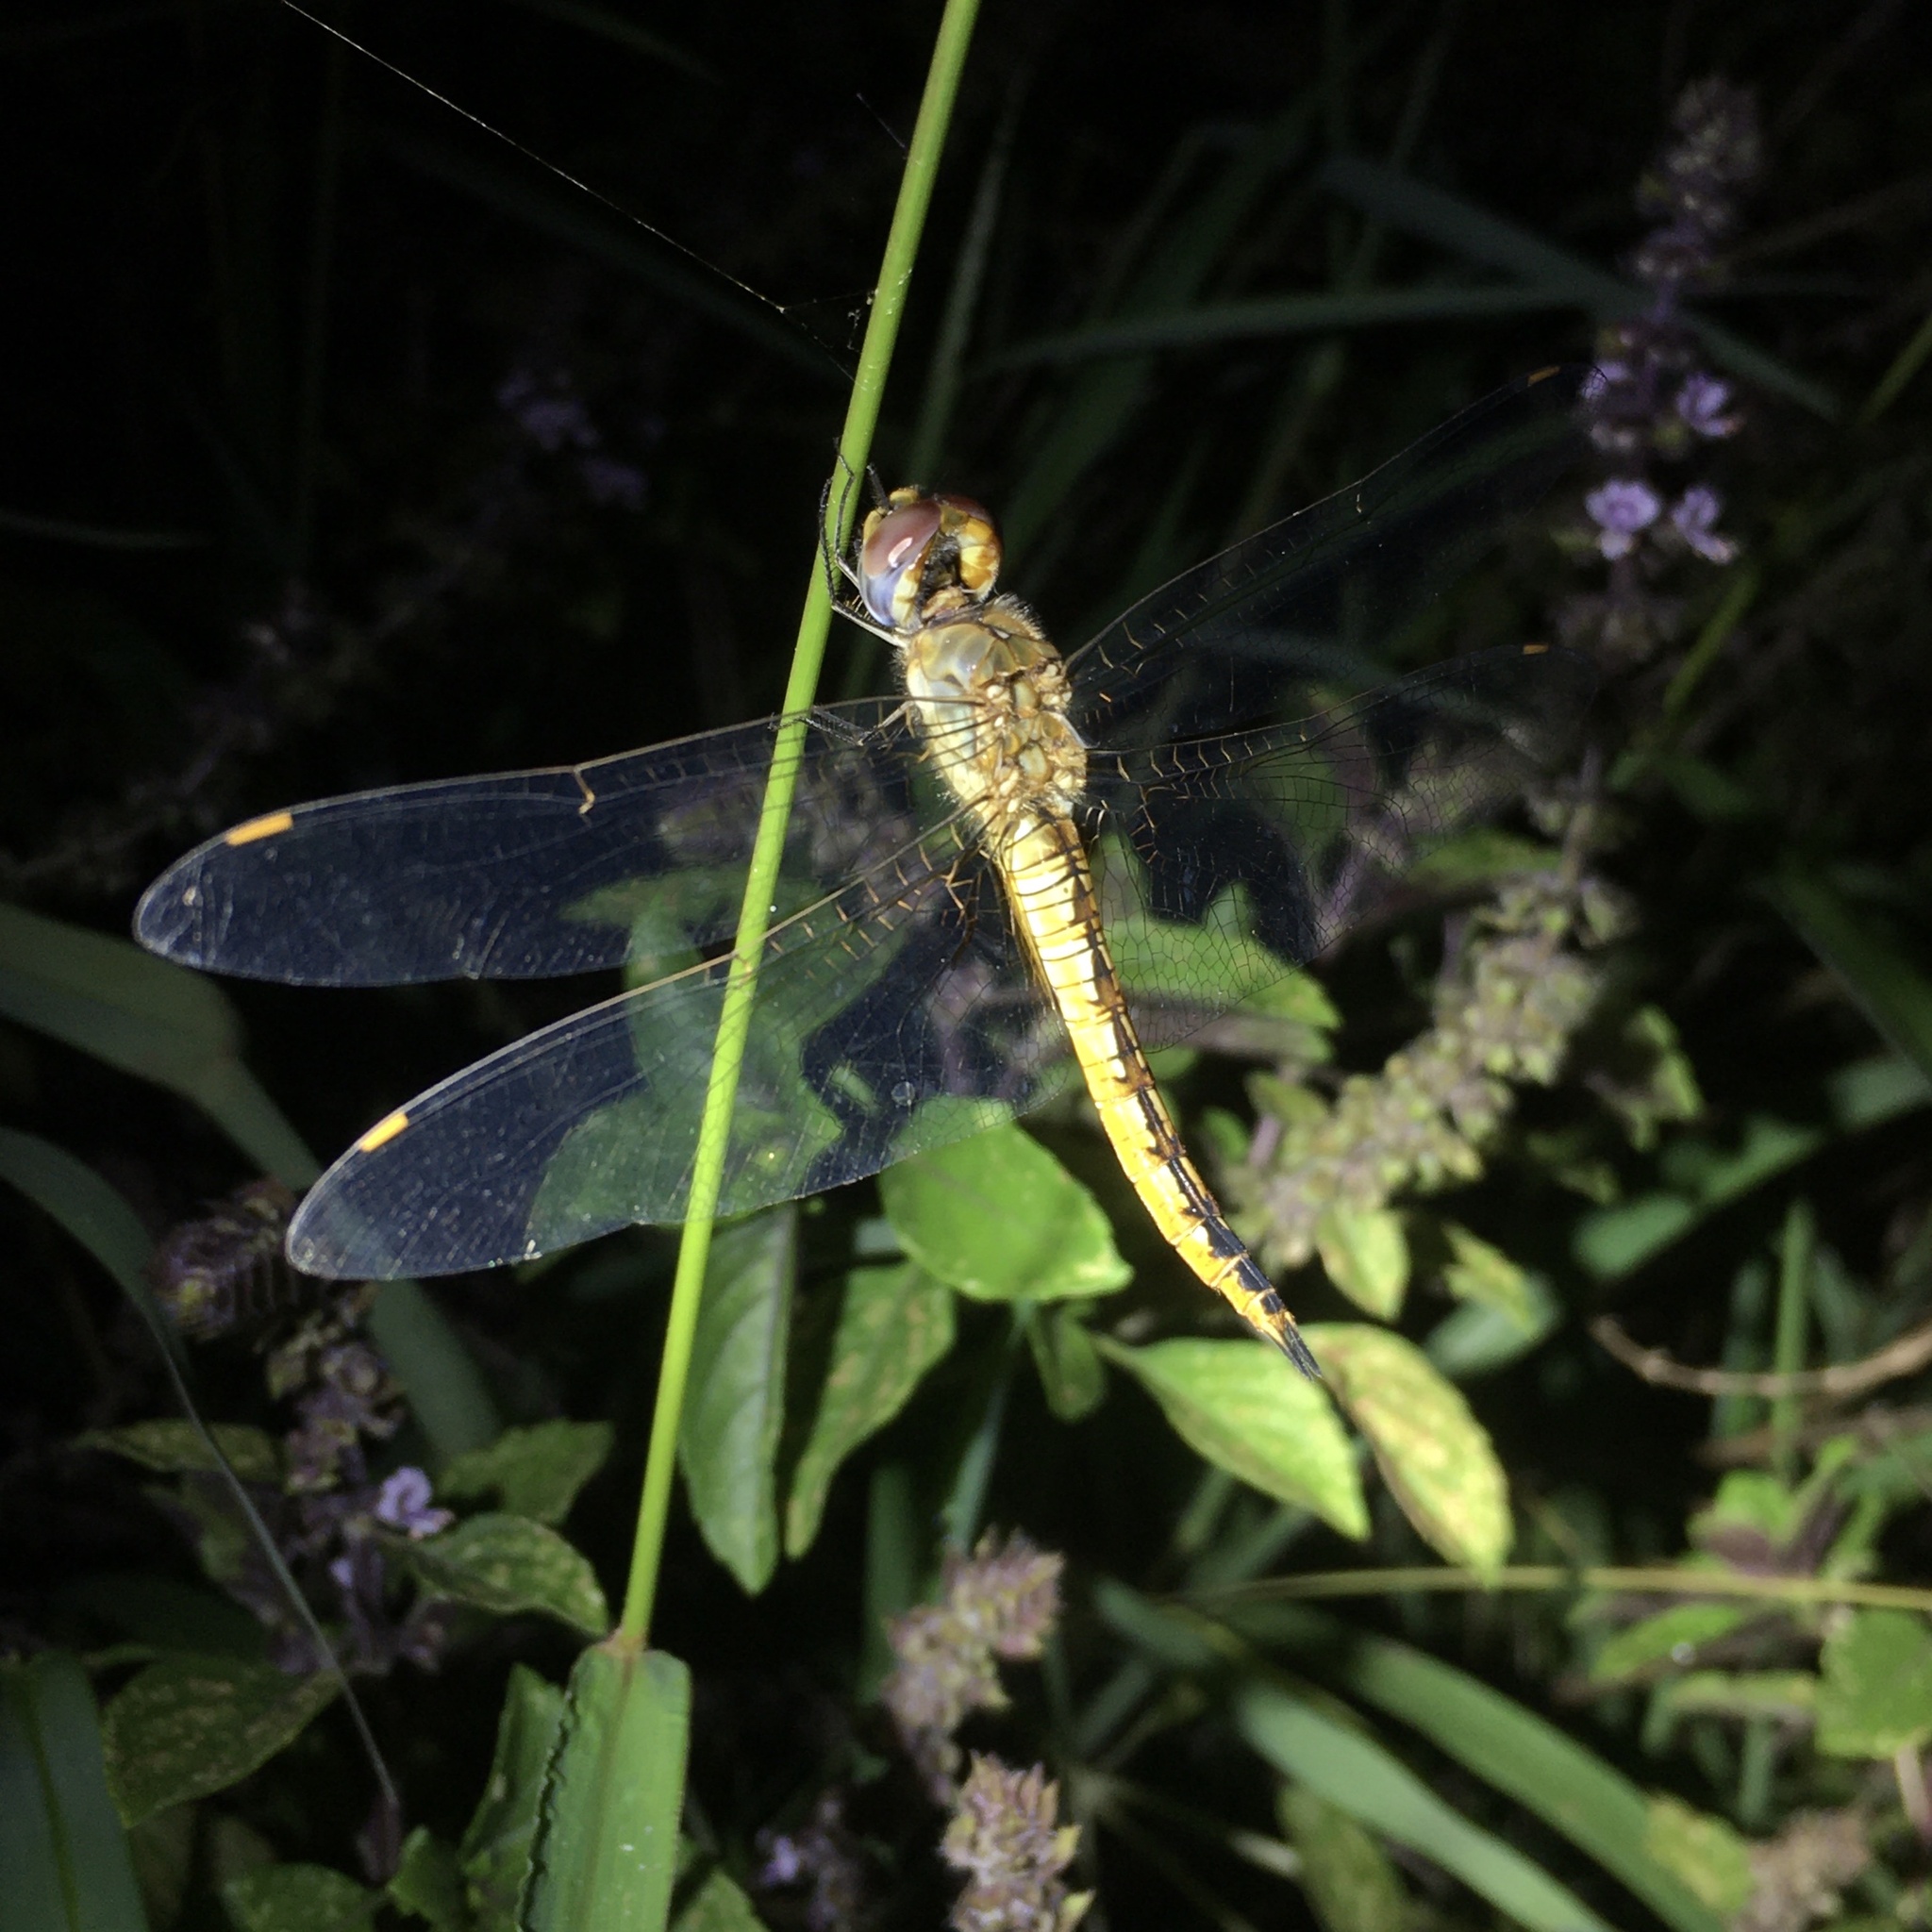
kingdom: Animalia
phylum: Arthropoda
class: Insecta
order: Odonata
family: Libellulidae
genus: Pantala
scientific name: Pantala flavescens
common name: Wandering glider
